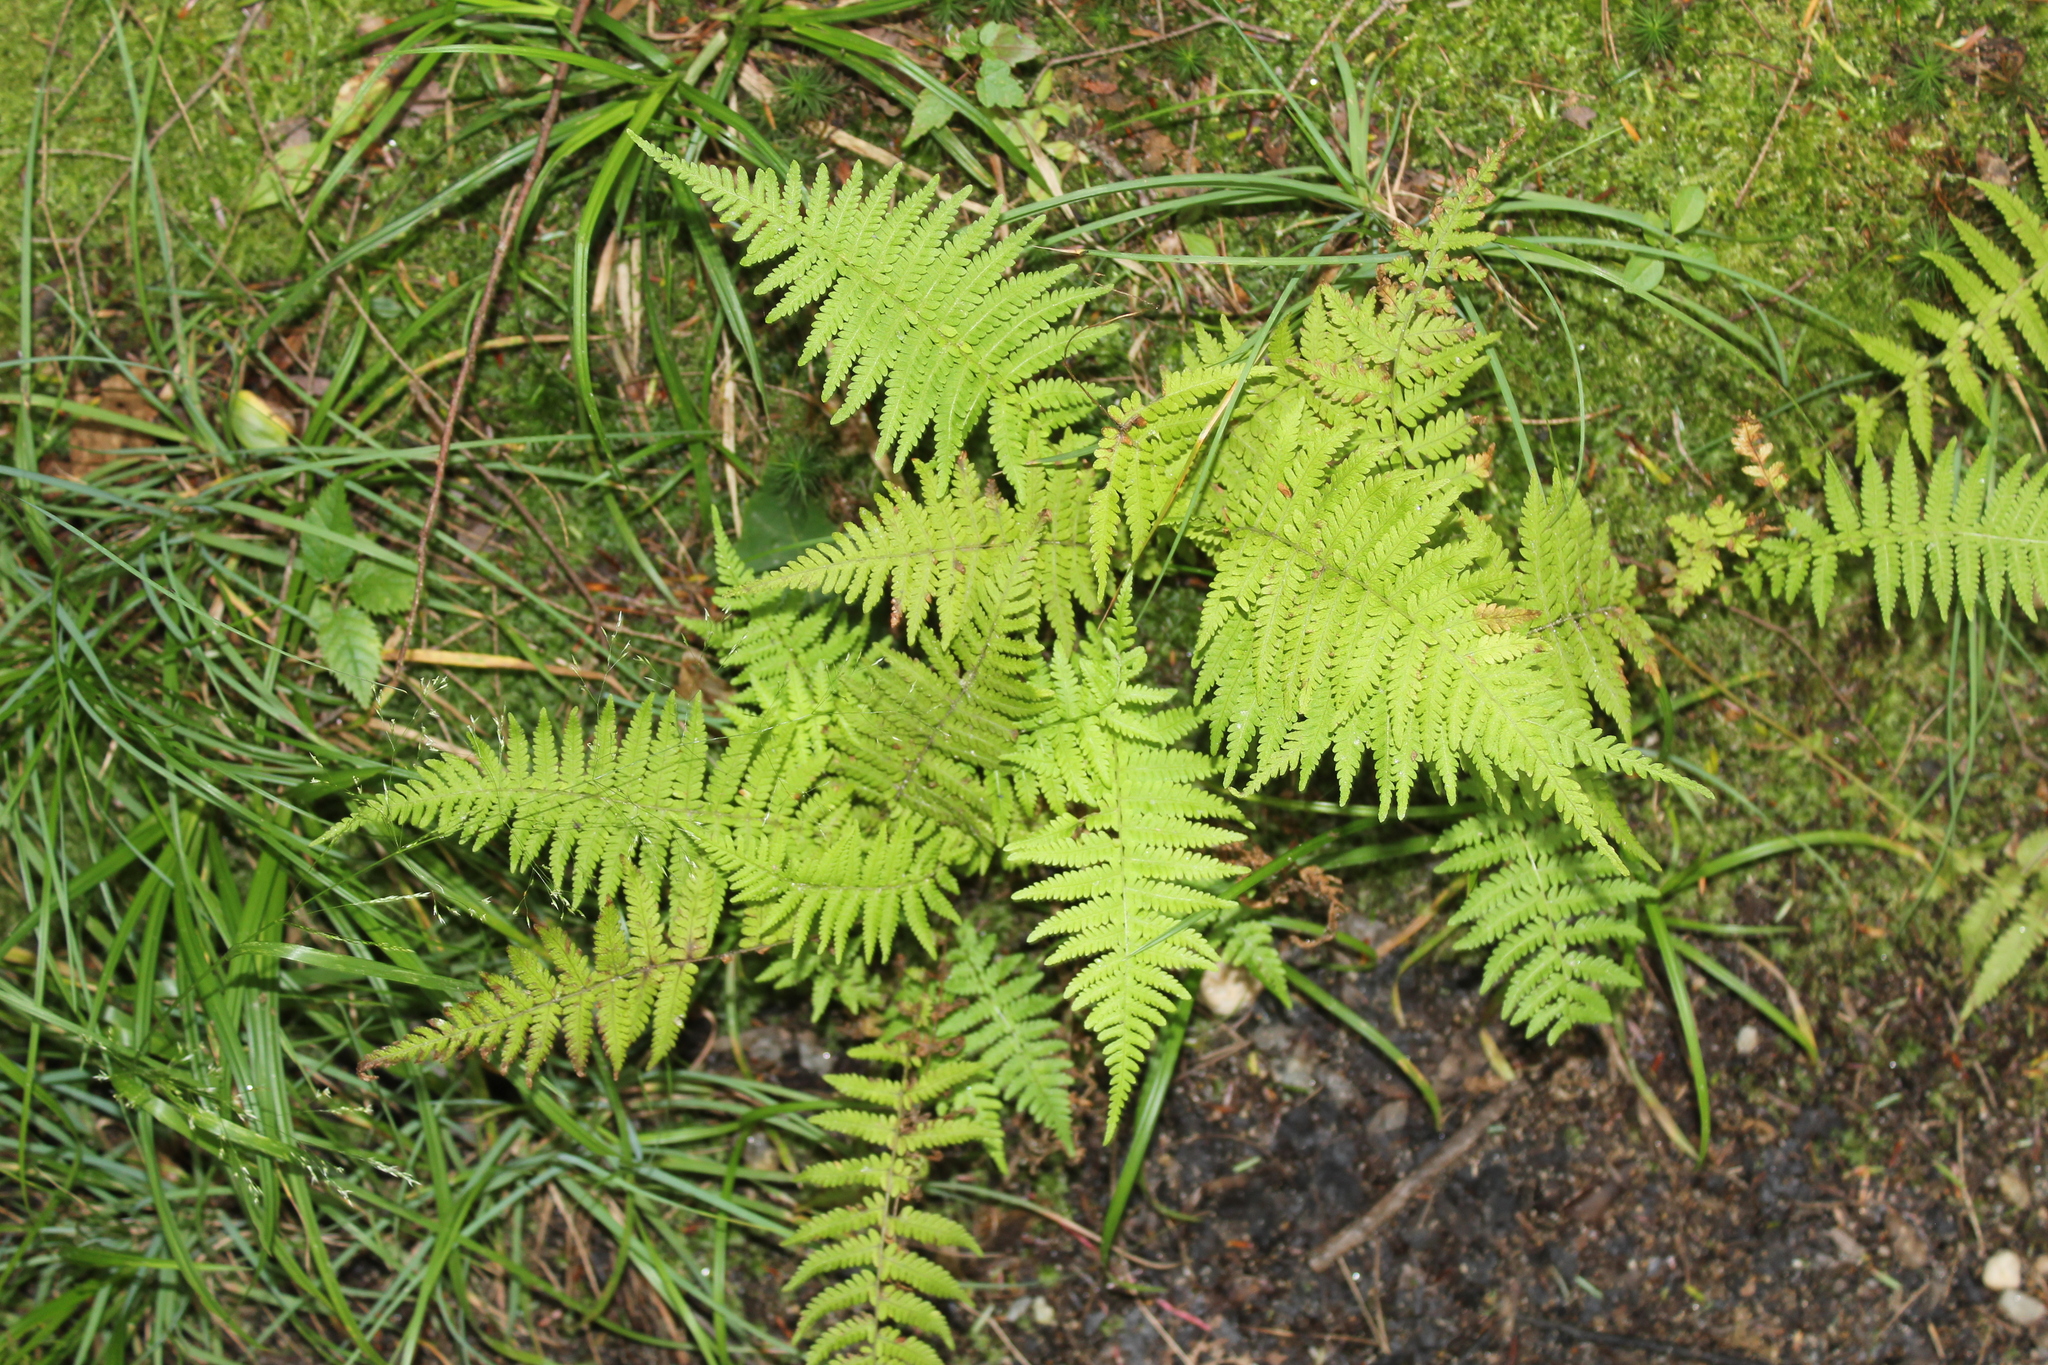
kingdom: Plantae
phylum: Tracheophyta
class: Polypodiopsida
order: Polypodiales
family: Thelypteridaceae
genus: Amauropelta
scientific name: Amauropelta noveboracensis
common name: New york fern
